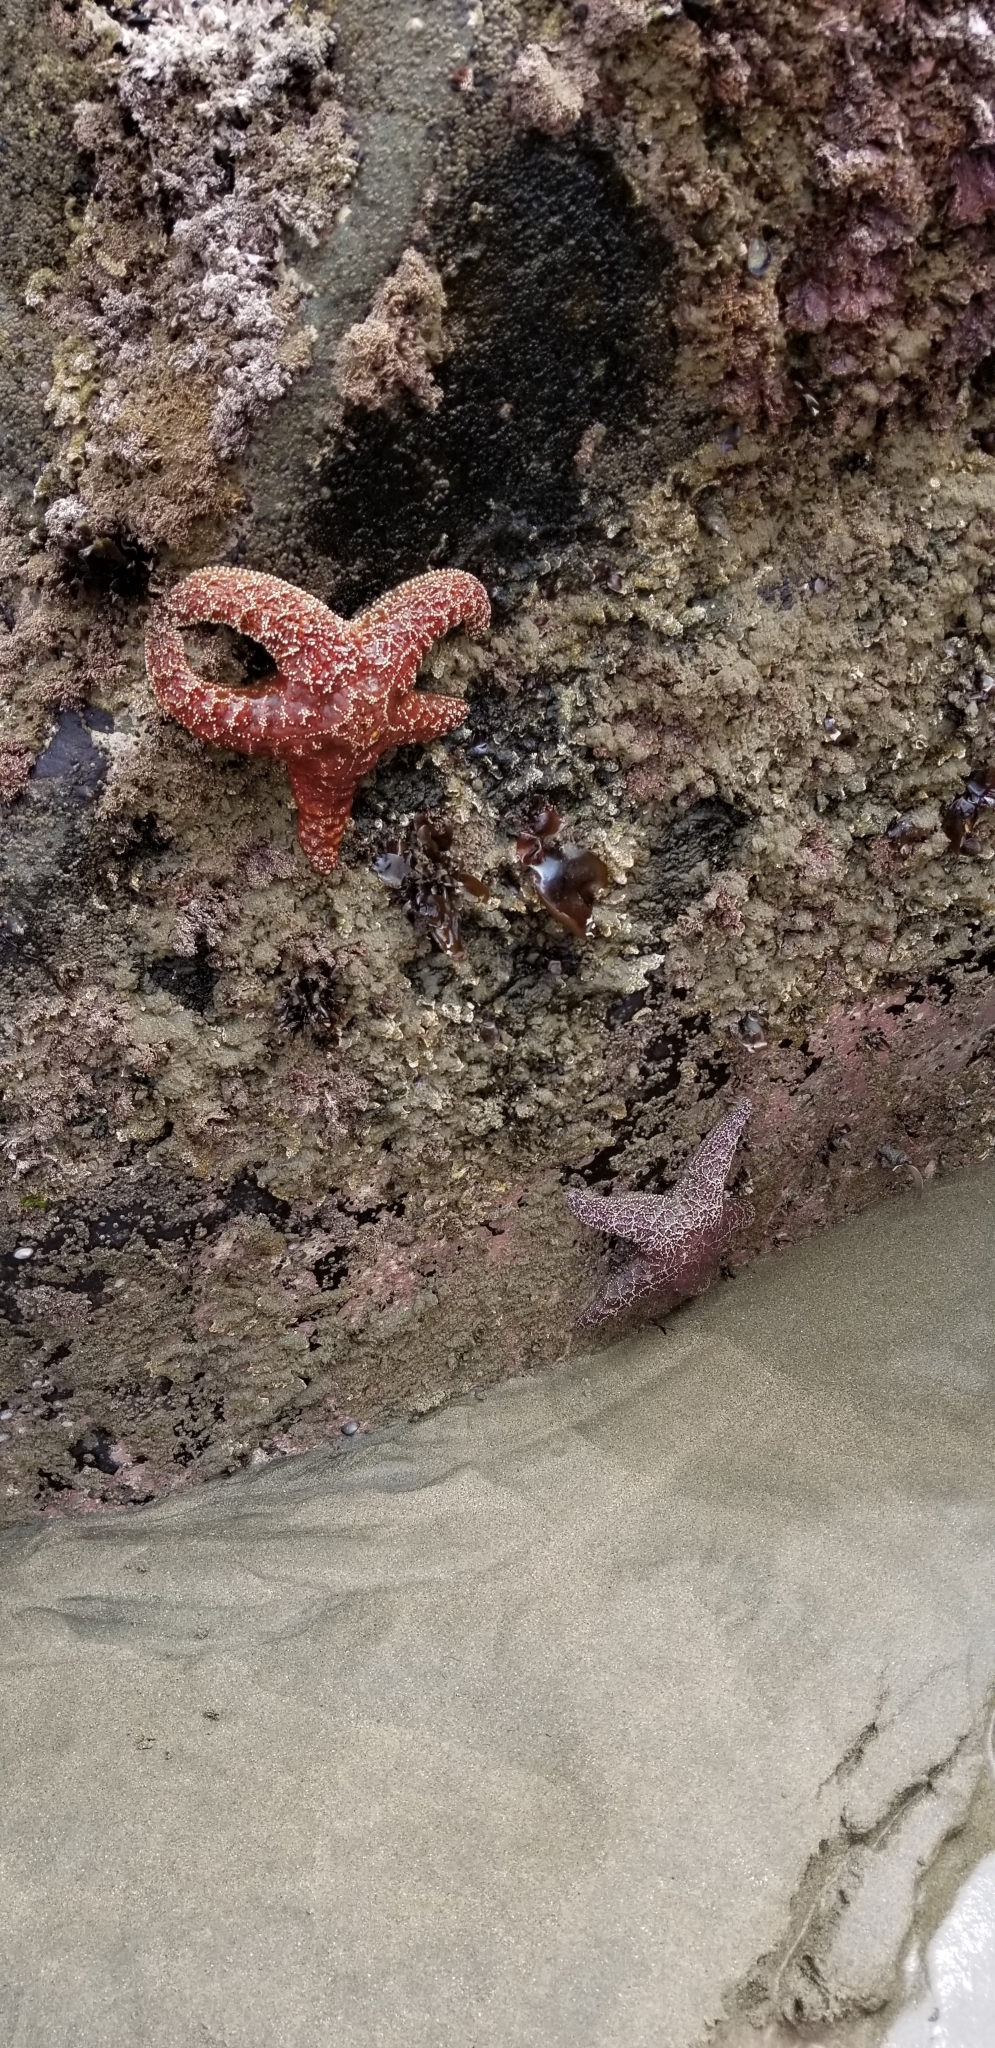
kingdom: Animalia
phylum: Echinodermata
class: Asteroidea
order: Forcipulatida
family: Asteriidae
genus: Pisaster
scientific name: Pisaster ochraceus
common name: Ochre stars
